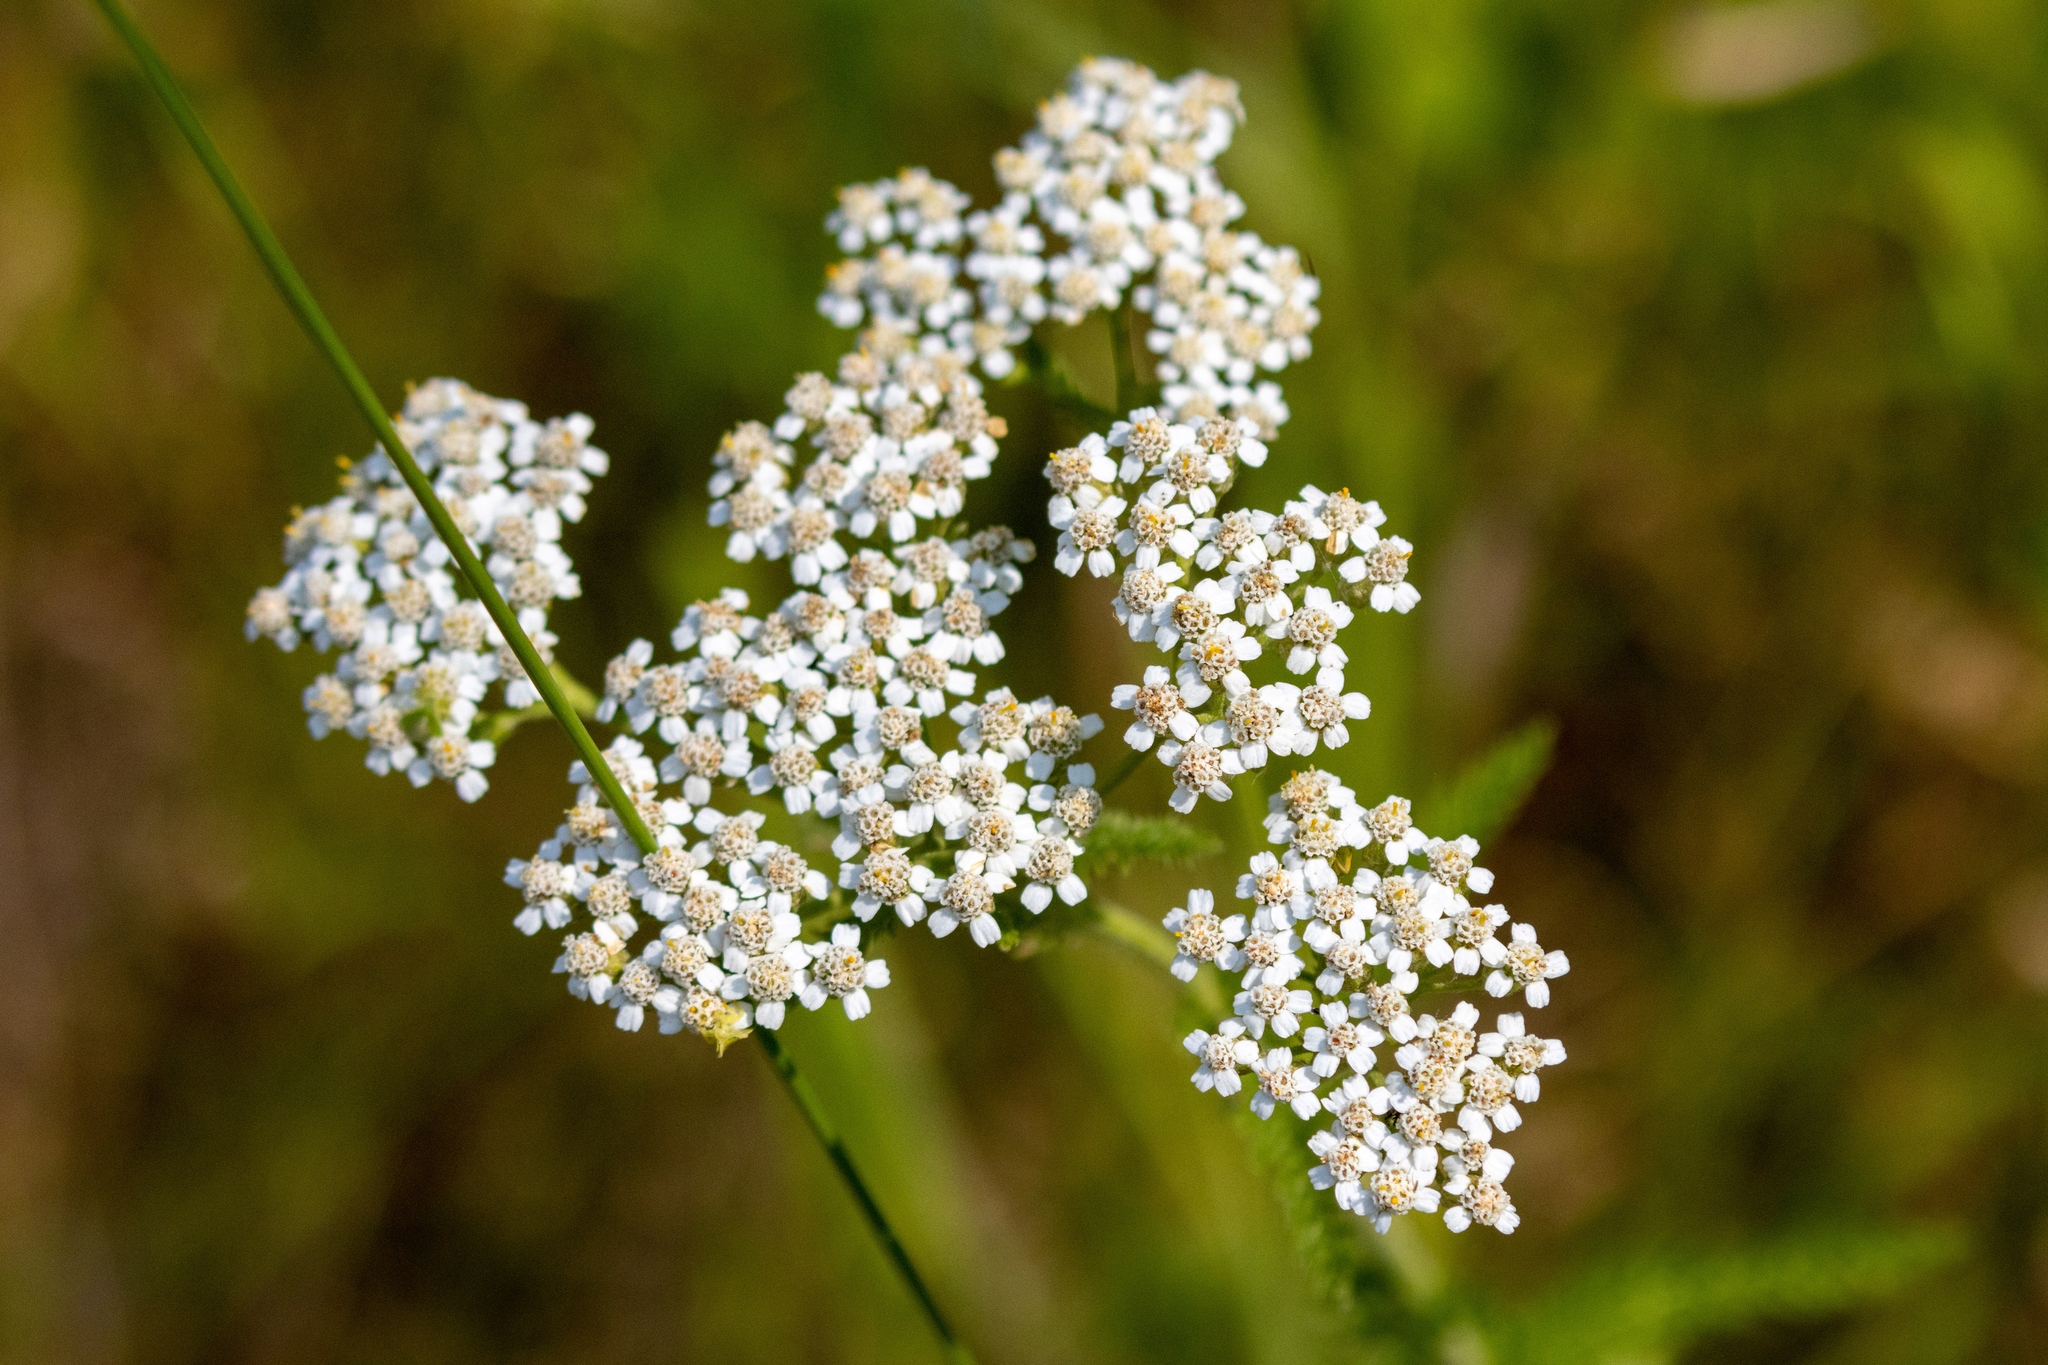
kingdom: Plantae
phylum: Tracheophyta
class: Magnoliopsida
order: Asterales
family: Asteraceae
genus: Achillea
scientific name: Achillea millefolium
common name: Yarrow
